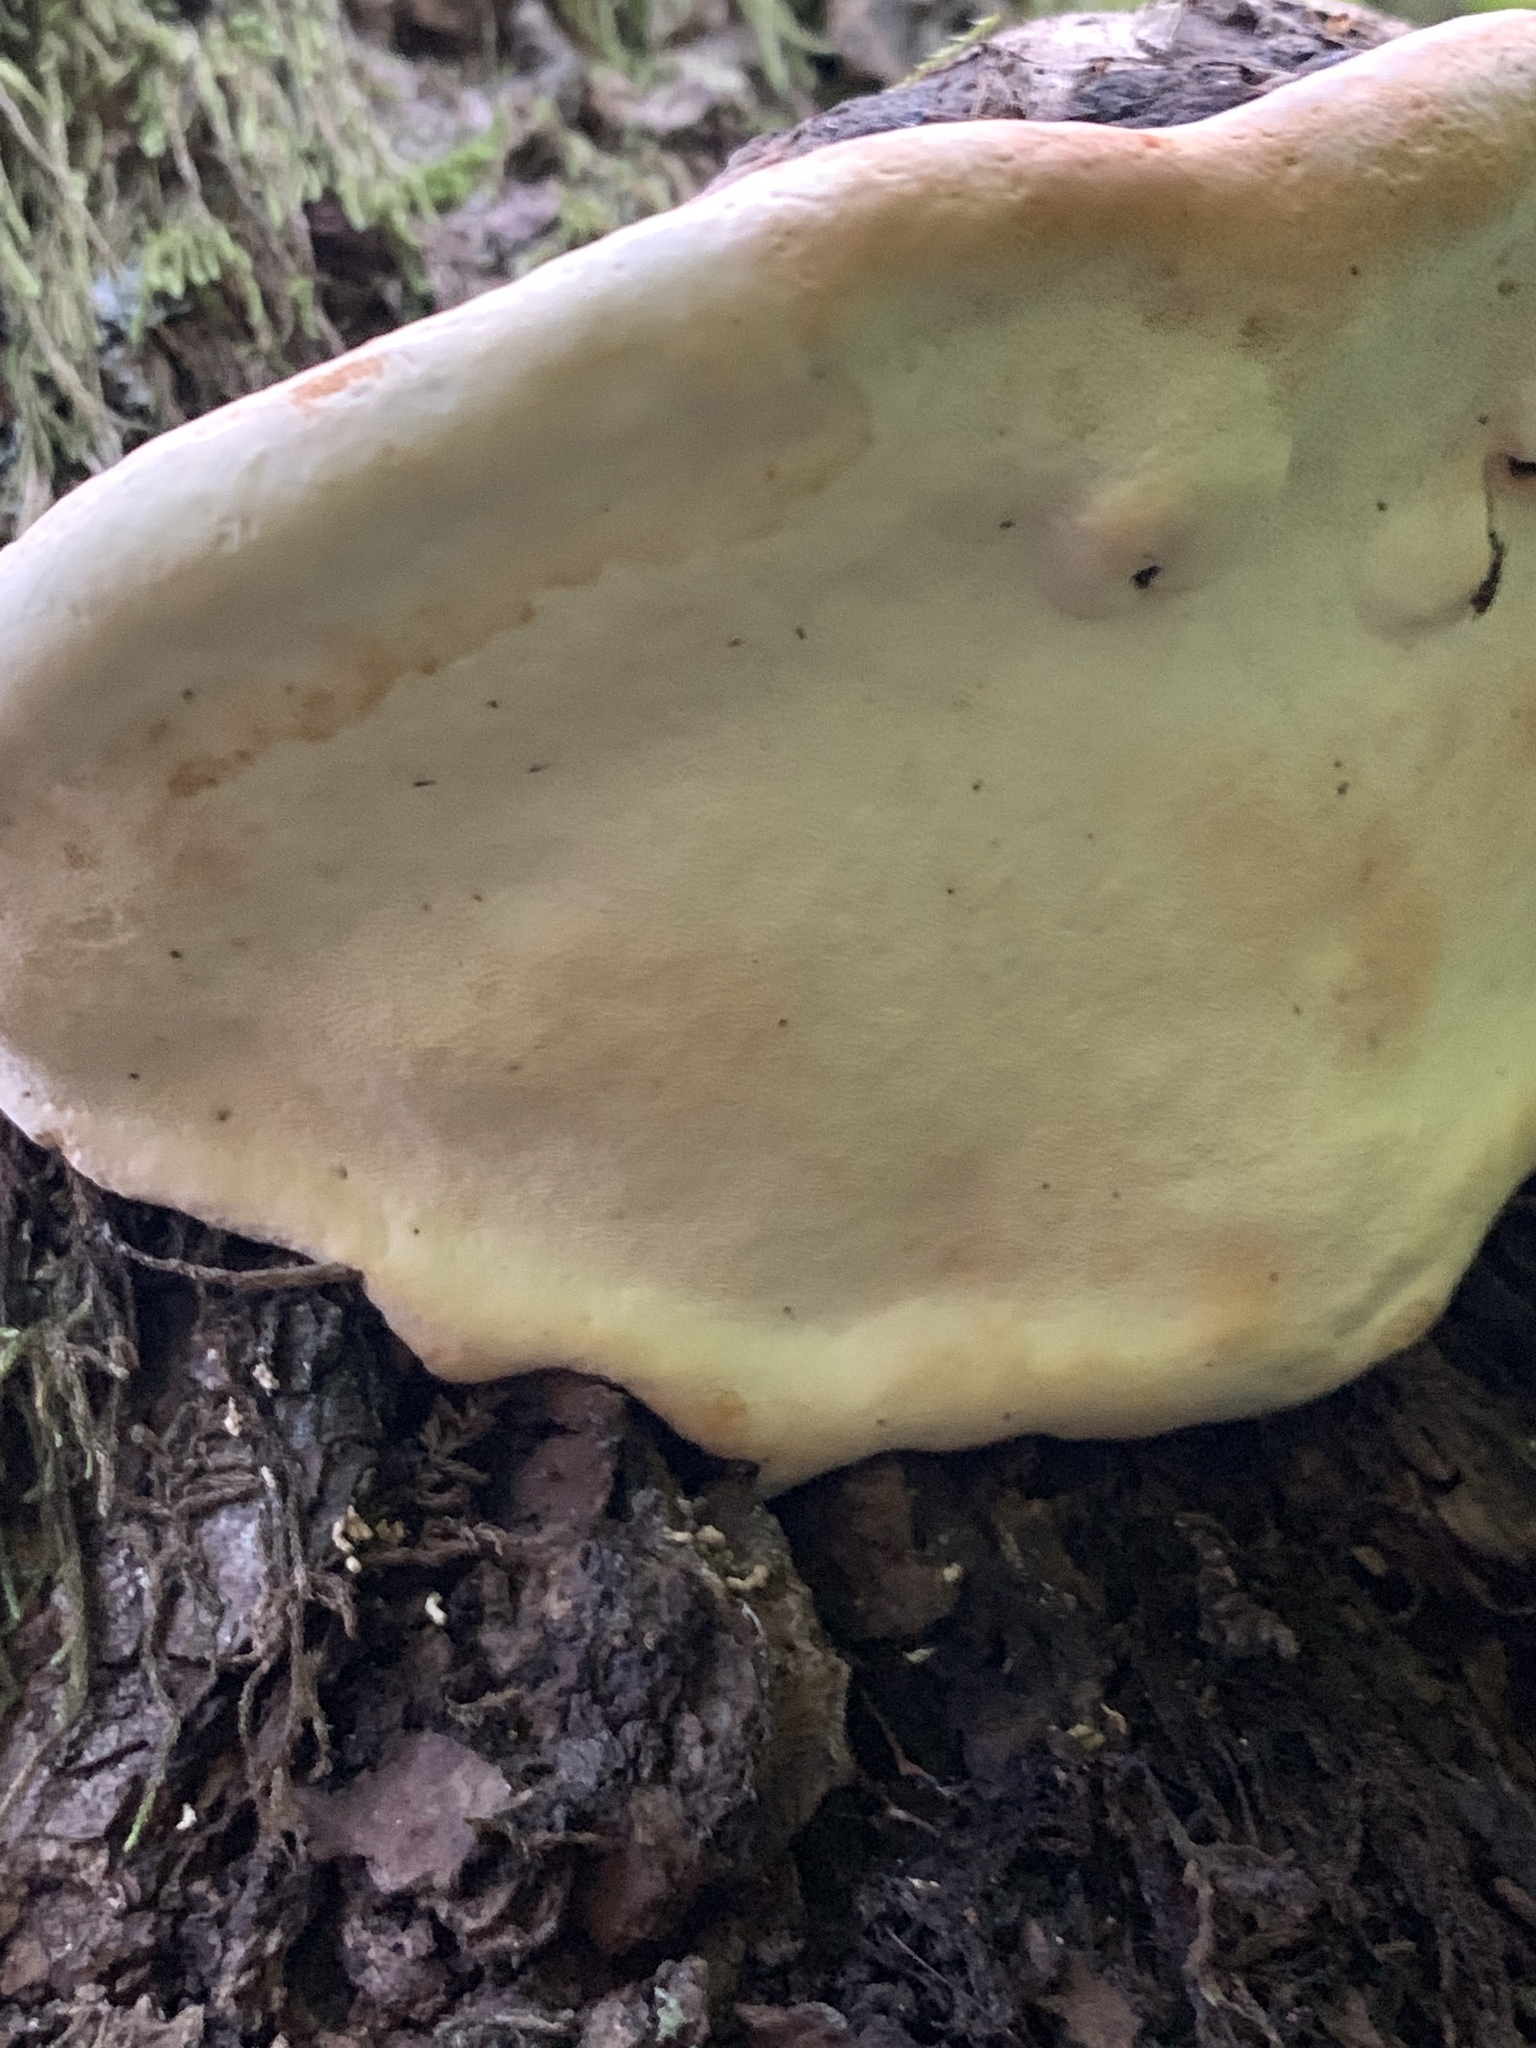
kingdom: Fungi
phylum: Basidiomycota
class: Agaricomycetes
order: Polyporales
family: Fomitopsidaceae
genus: Fomitopsis
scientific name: Fomitopsis mounceae
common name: Northern red belt
